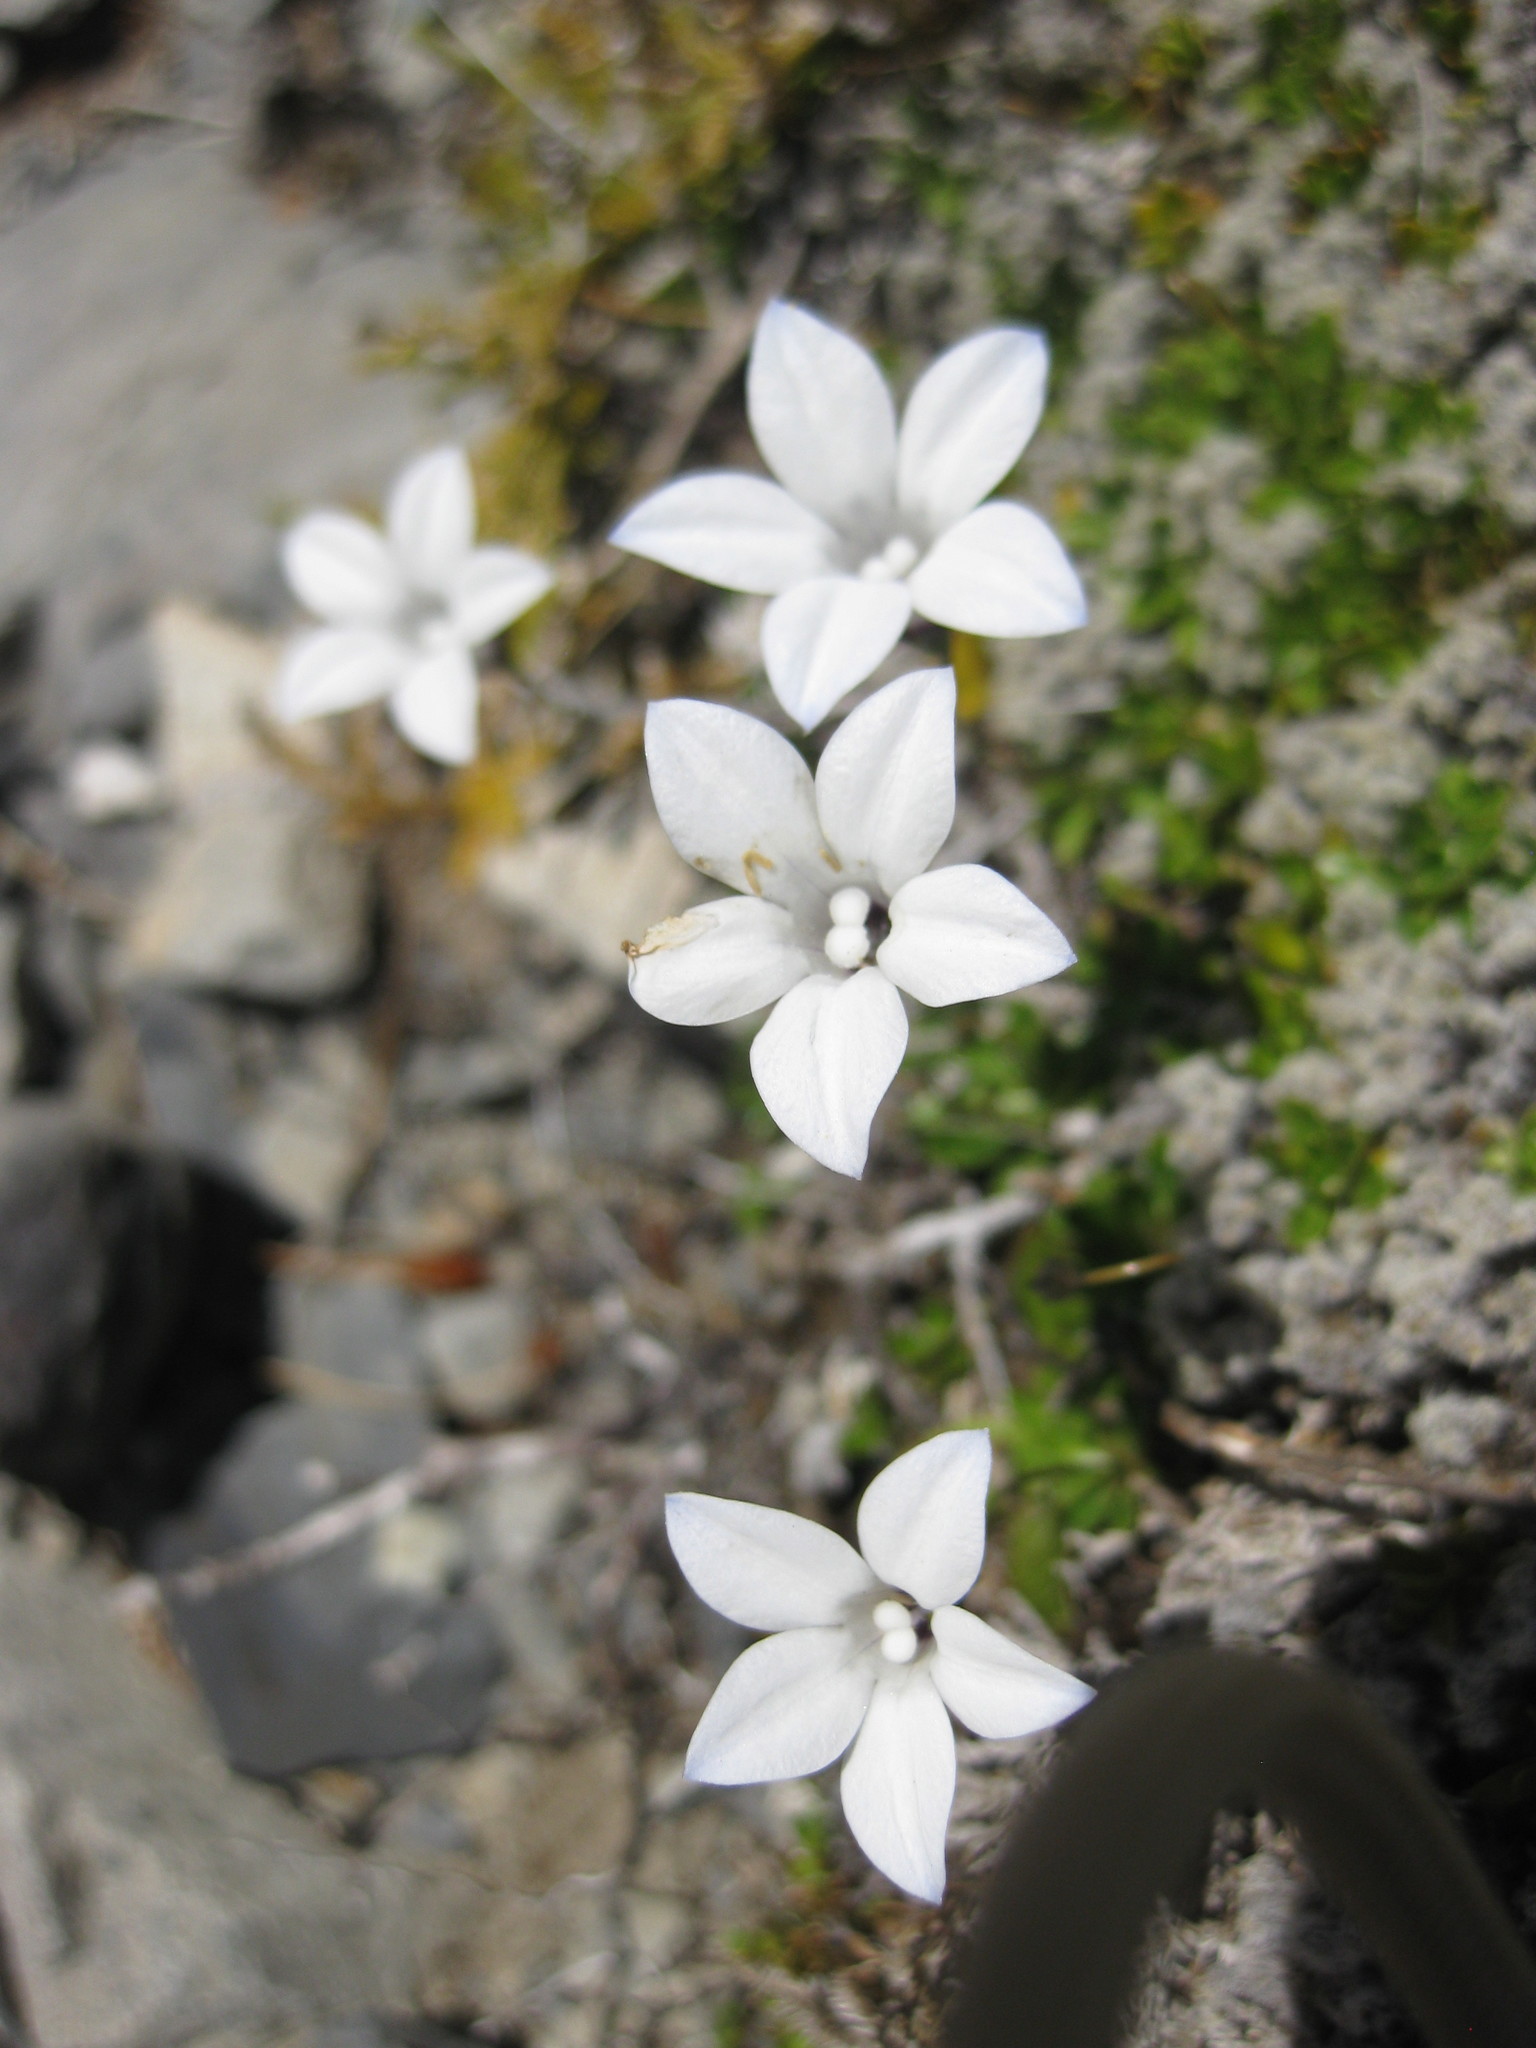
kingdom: Plantae
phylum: Tracheophyta
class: Magnoliopsida
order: Asterales
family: Campanulaceae
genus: Wahlenbergia
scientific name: Wahlenbergia albomarginata
